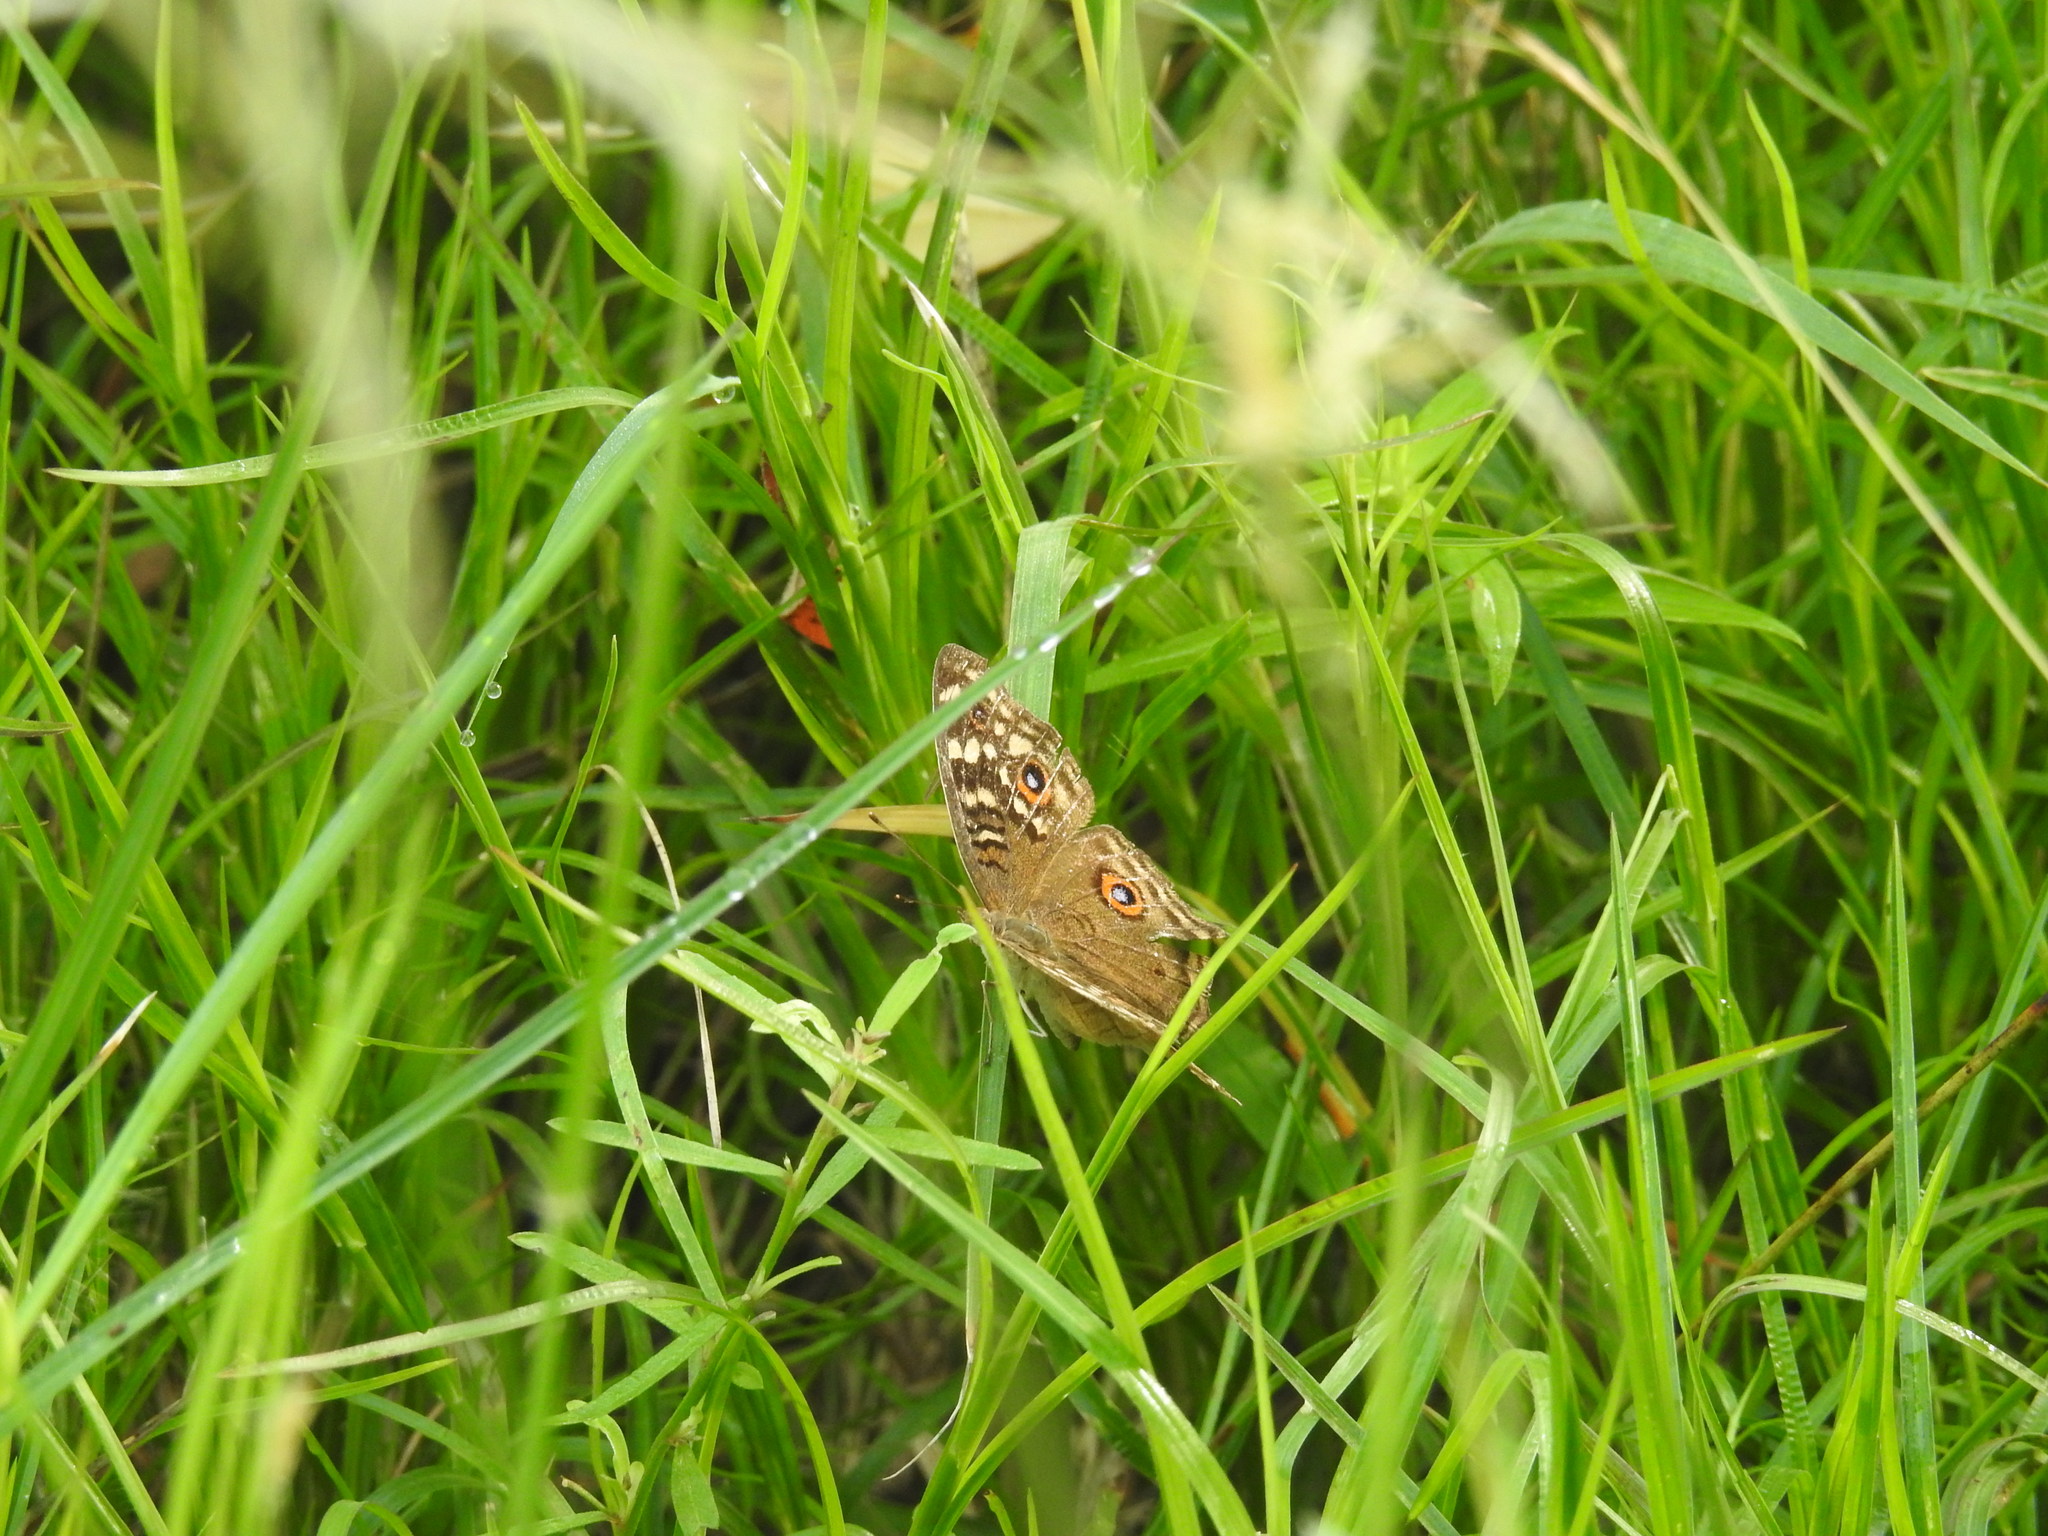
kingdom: Animalia
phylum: Arthropoda
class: Insecta
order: Lepidoptera
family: Nymphalidae
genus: Junonia
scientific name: Junonia lemonias
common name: Lemon pansy
